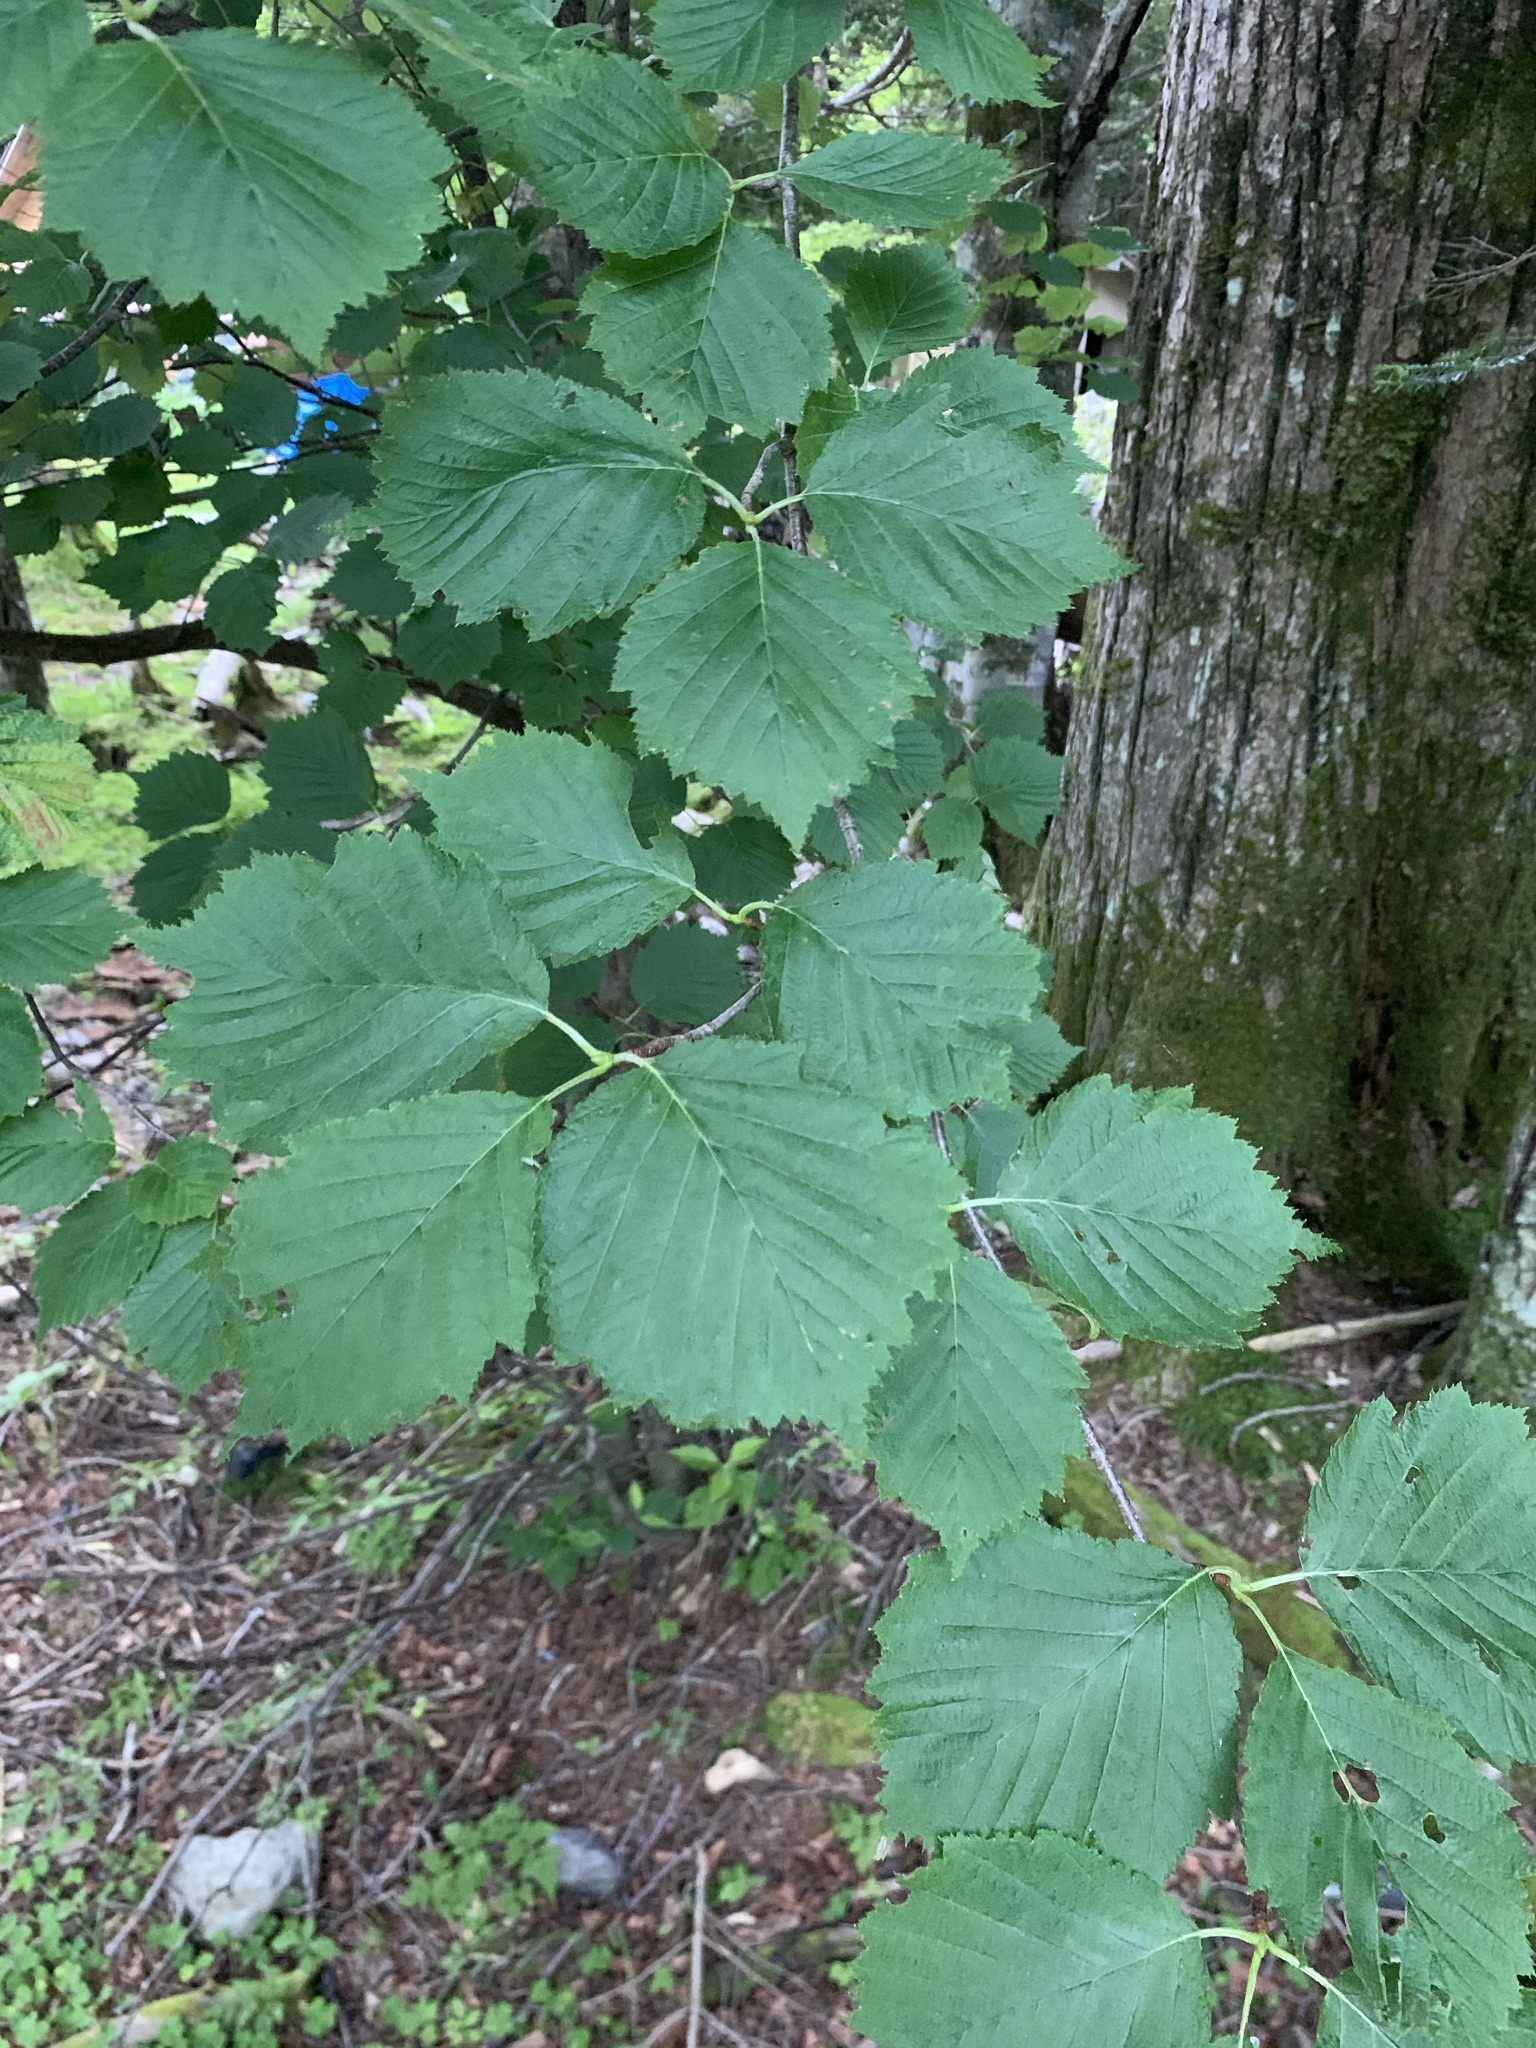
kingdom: Plantae
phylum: Tracheophyta
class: Magnoliopsida
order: Rosales
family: Rosaceae
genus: Sorbus
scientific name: Sorbus japonica
